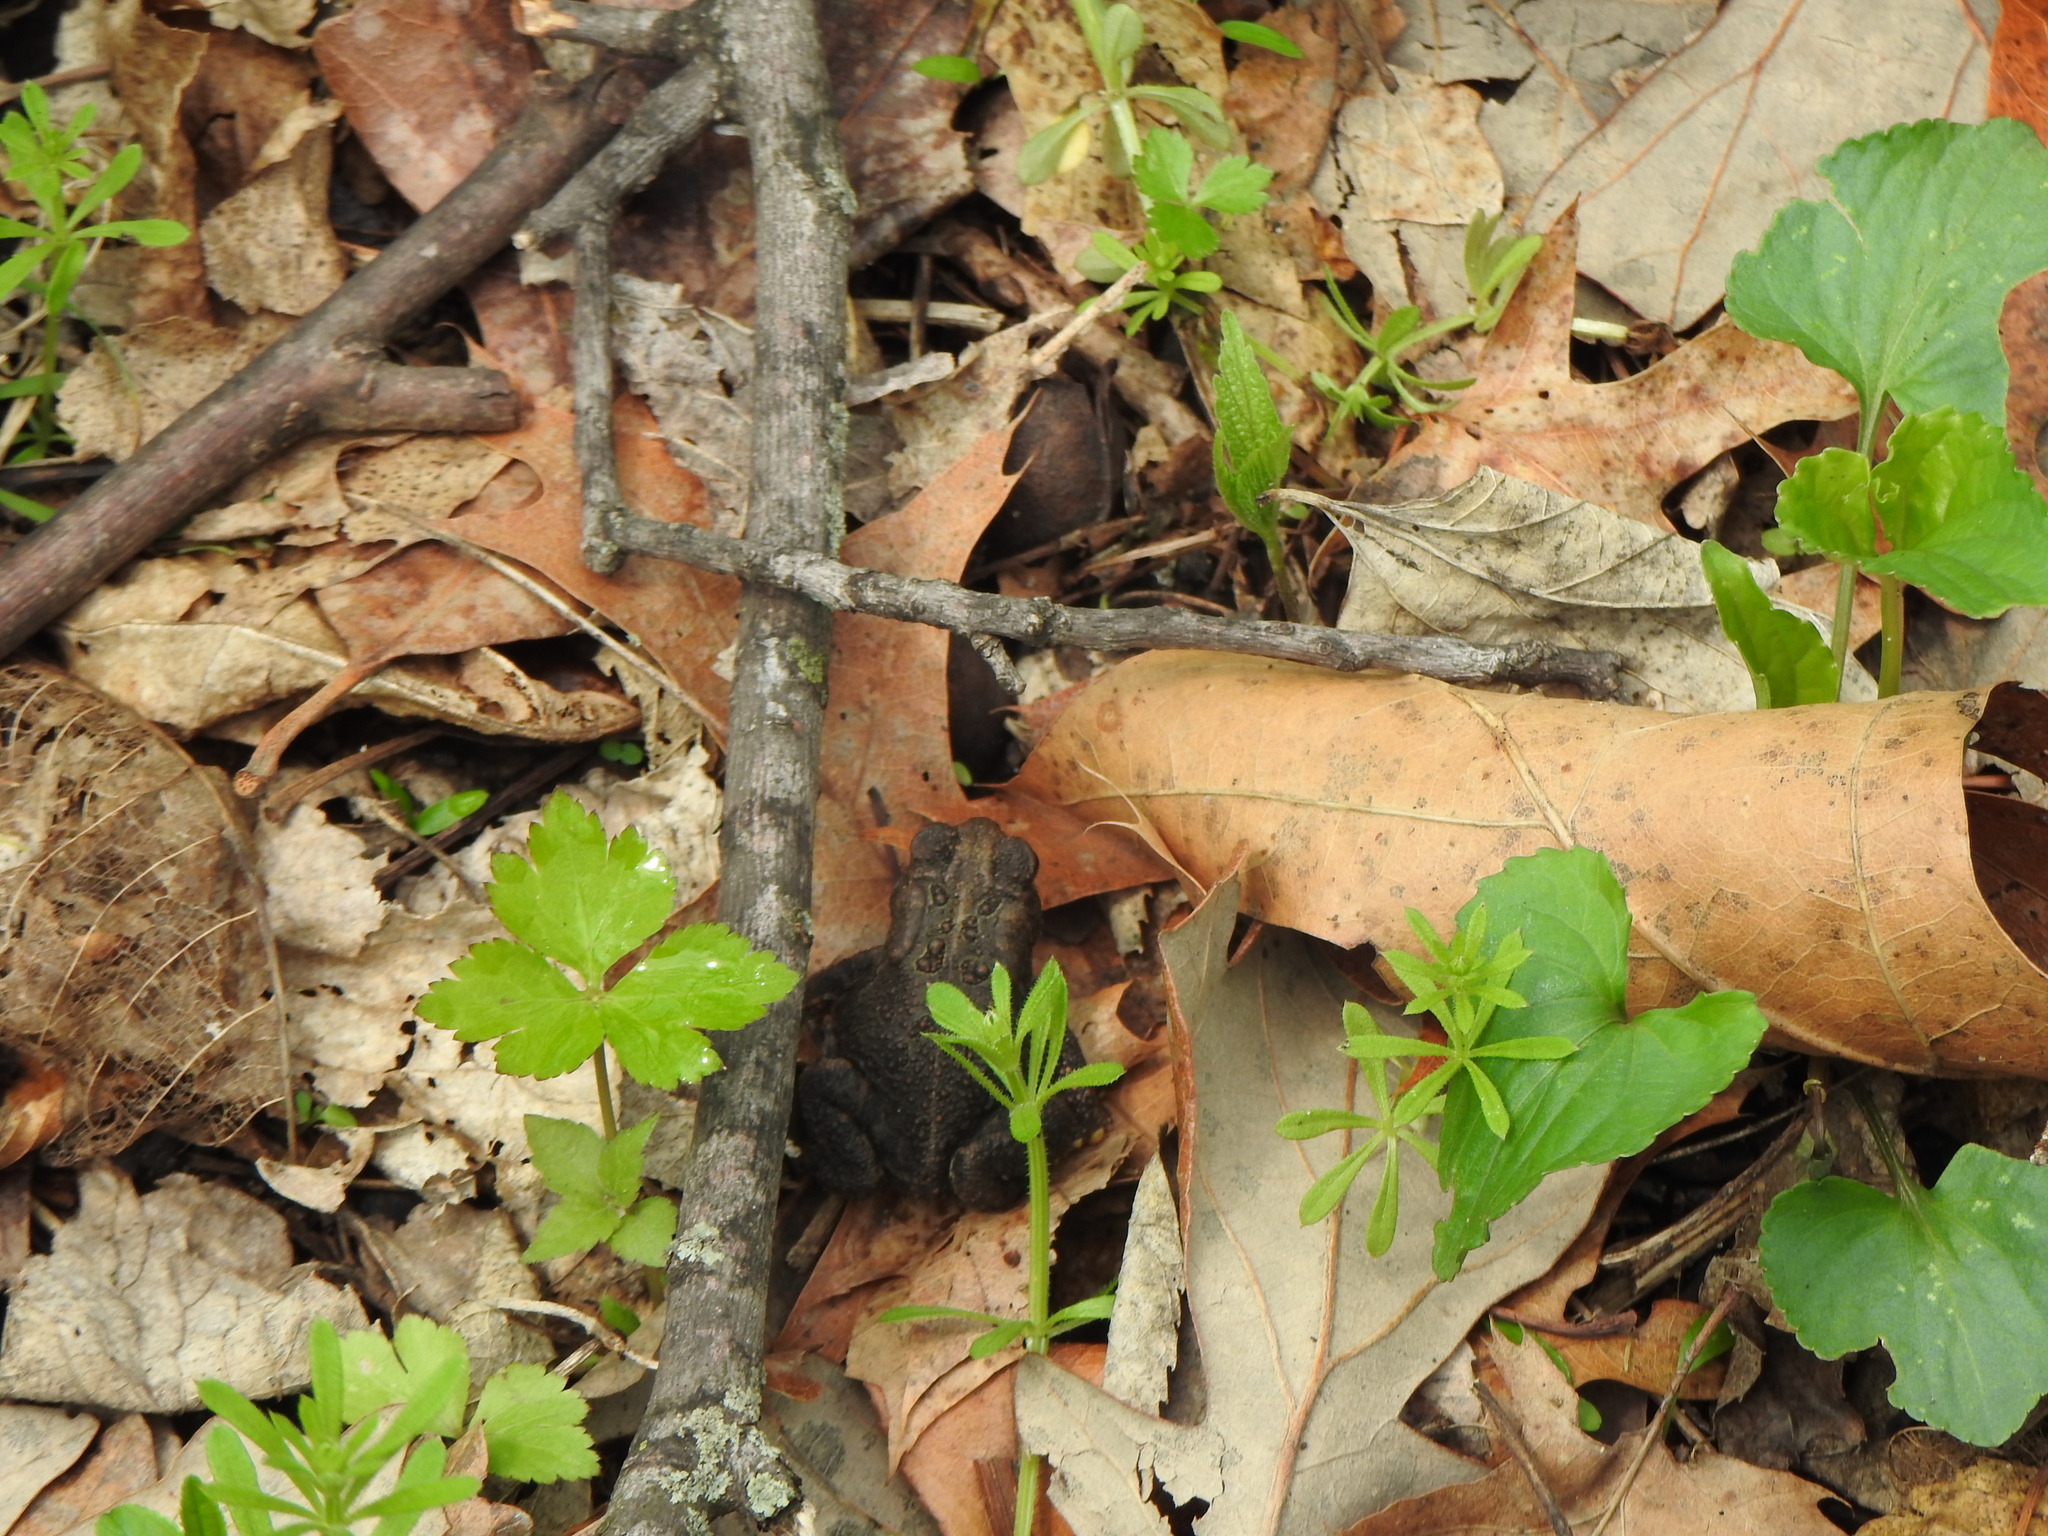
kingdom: Animalia
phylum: Chordata
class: Amphibia
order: Anura
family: Bufonidae
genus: Anaxyrus
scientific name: Anaxyrus americanus
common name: American toad
